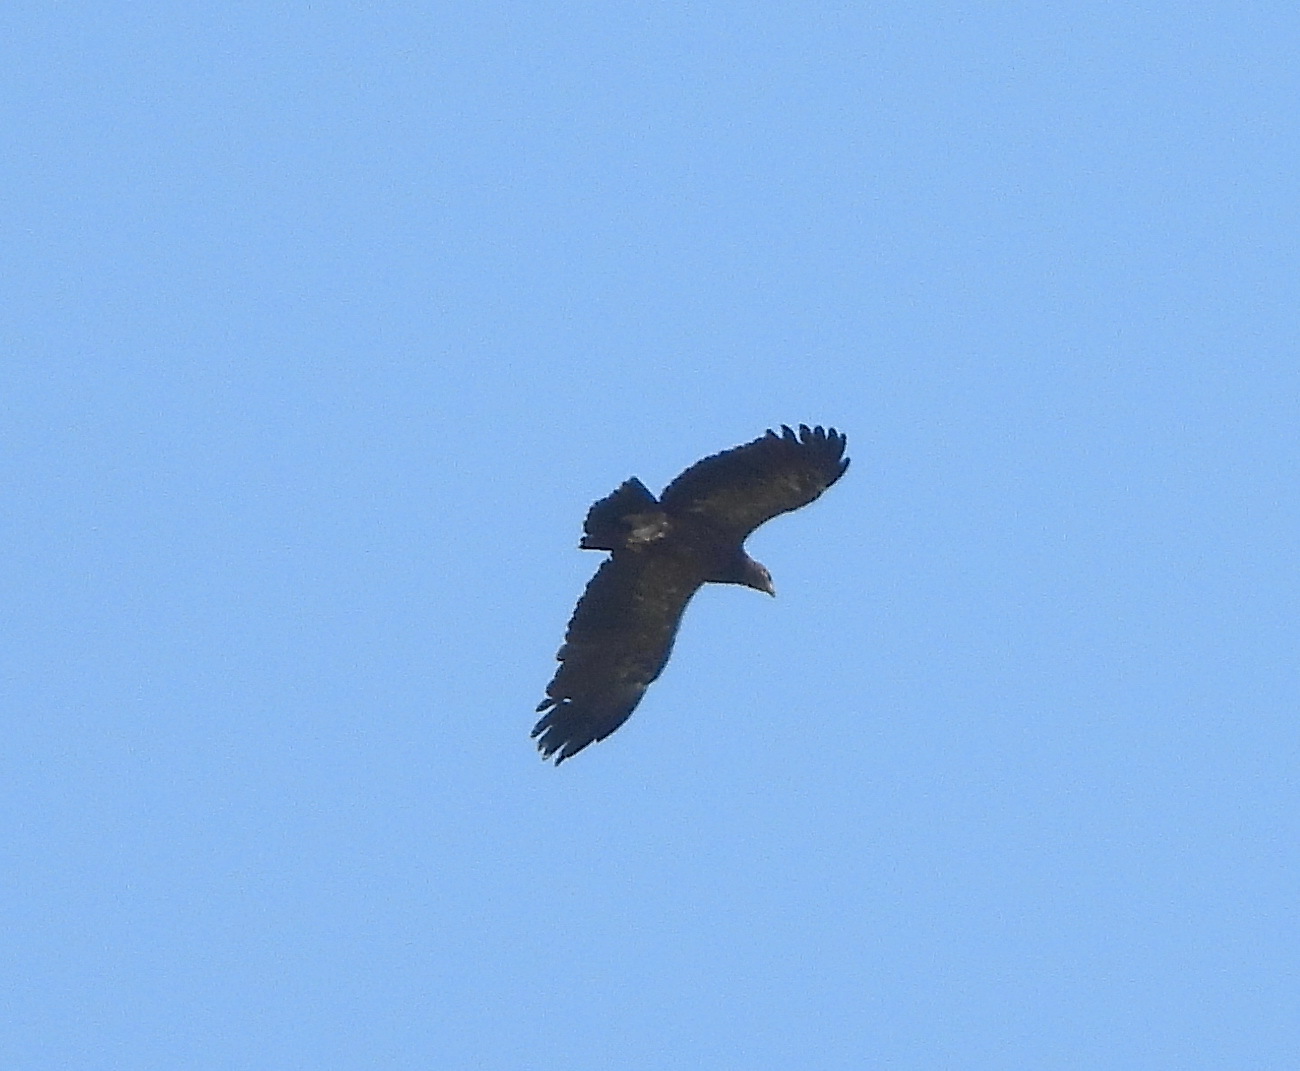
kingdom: Animalia
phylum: Chordata
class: Aves
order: Accipitriformes
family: Accipitridae
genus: Aquila
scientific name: Aquila pomarina
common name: Lesser spotted eagle
